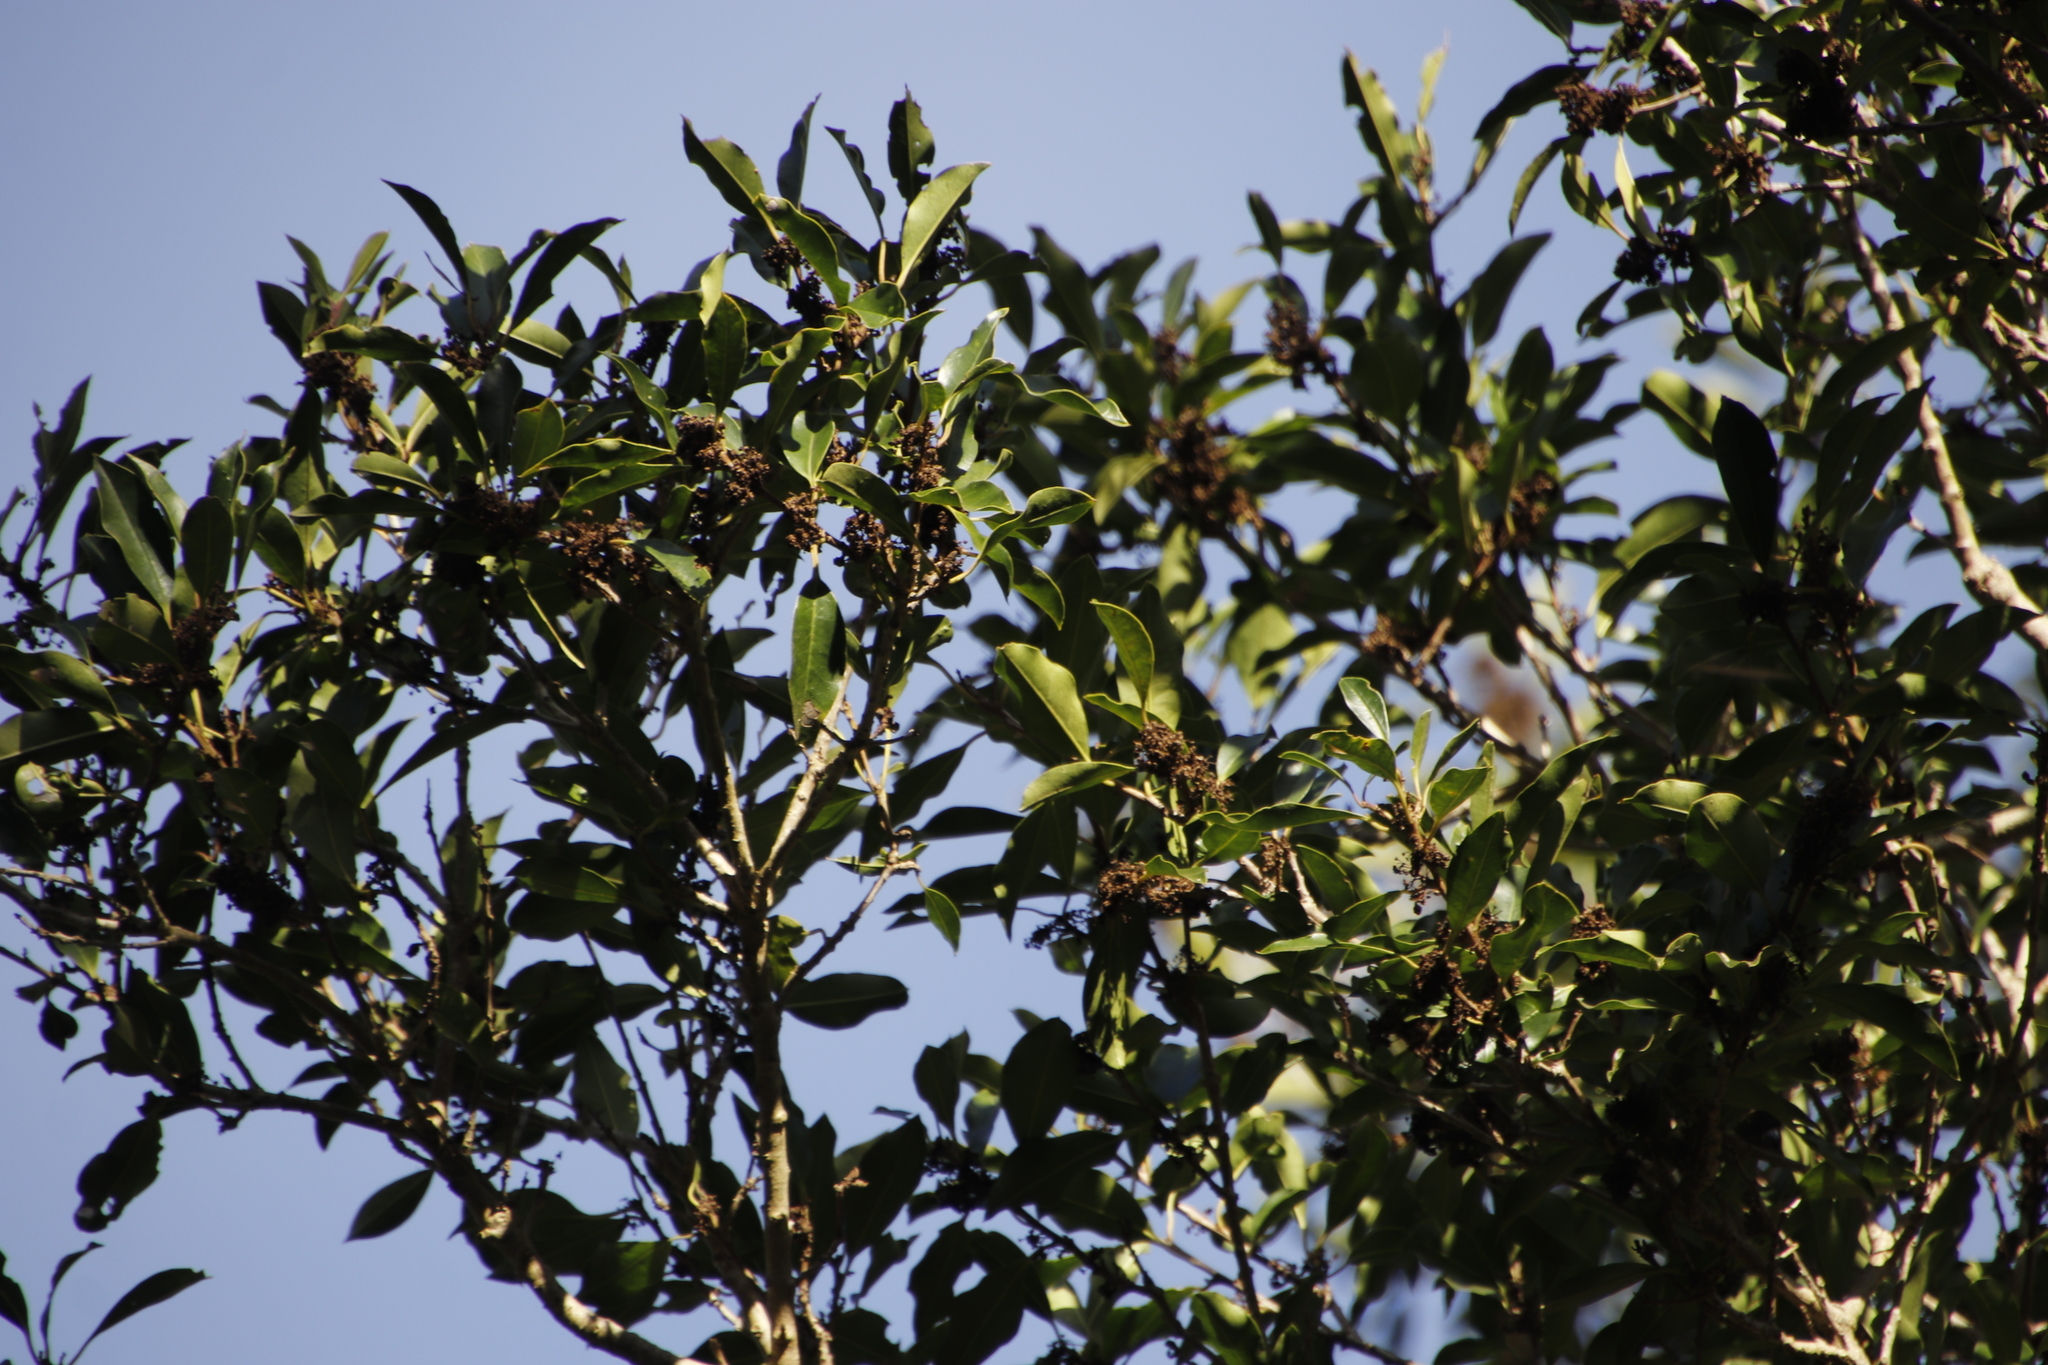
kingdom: Plantae
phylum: Tracheophyta
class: Magnoliopsida
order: Aquifoliales
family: Aquifoliaceae
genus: Ilex
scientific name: Ilex mitis
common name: African holly
